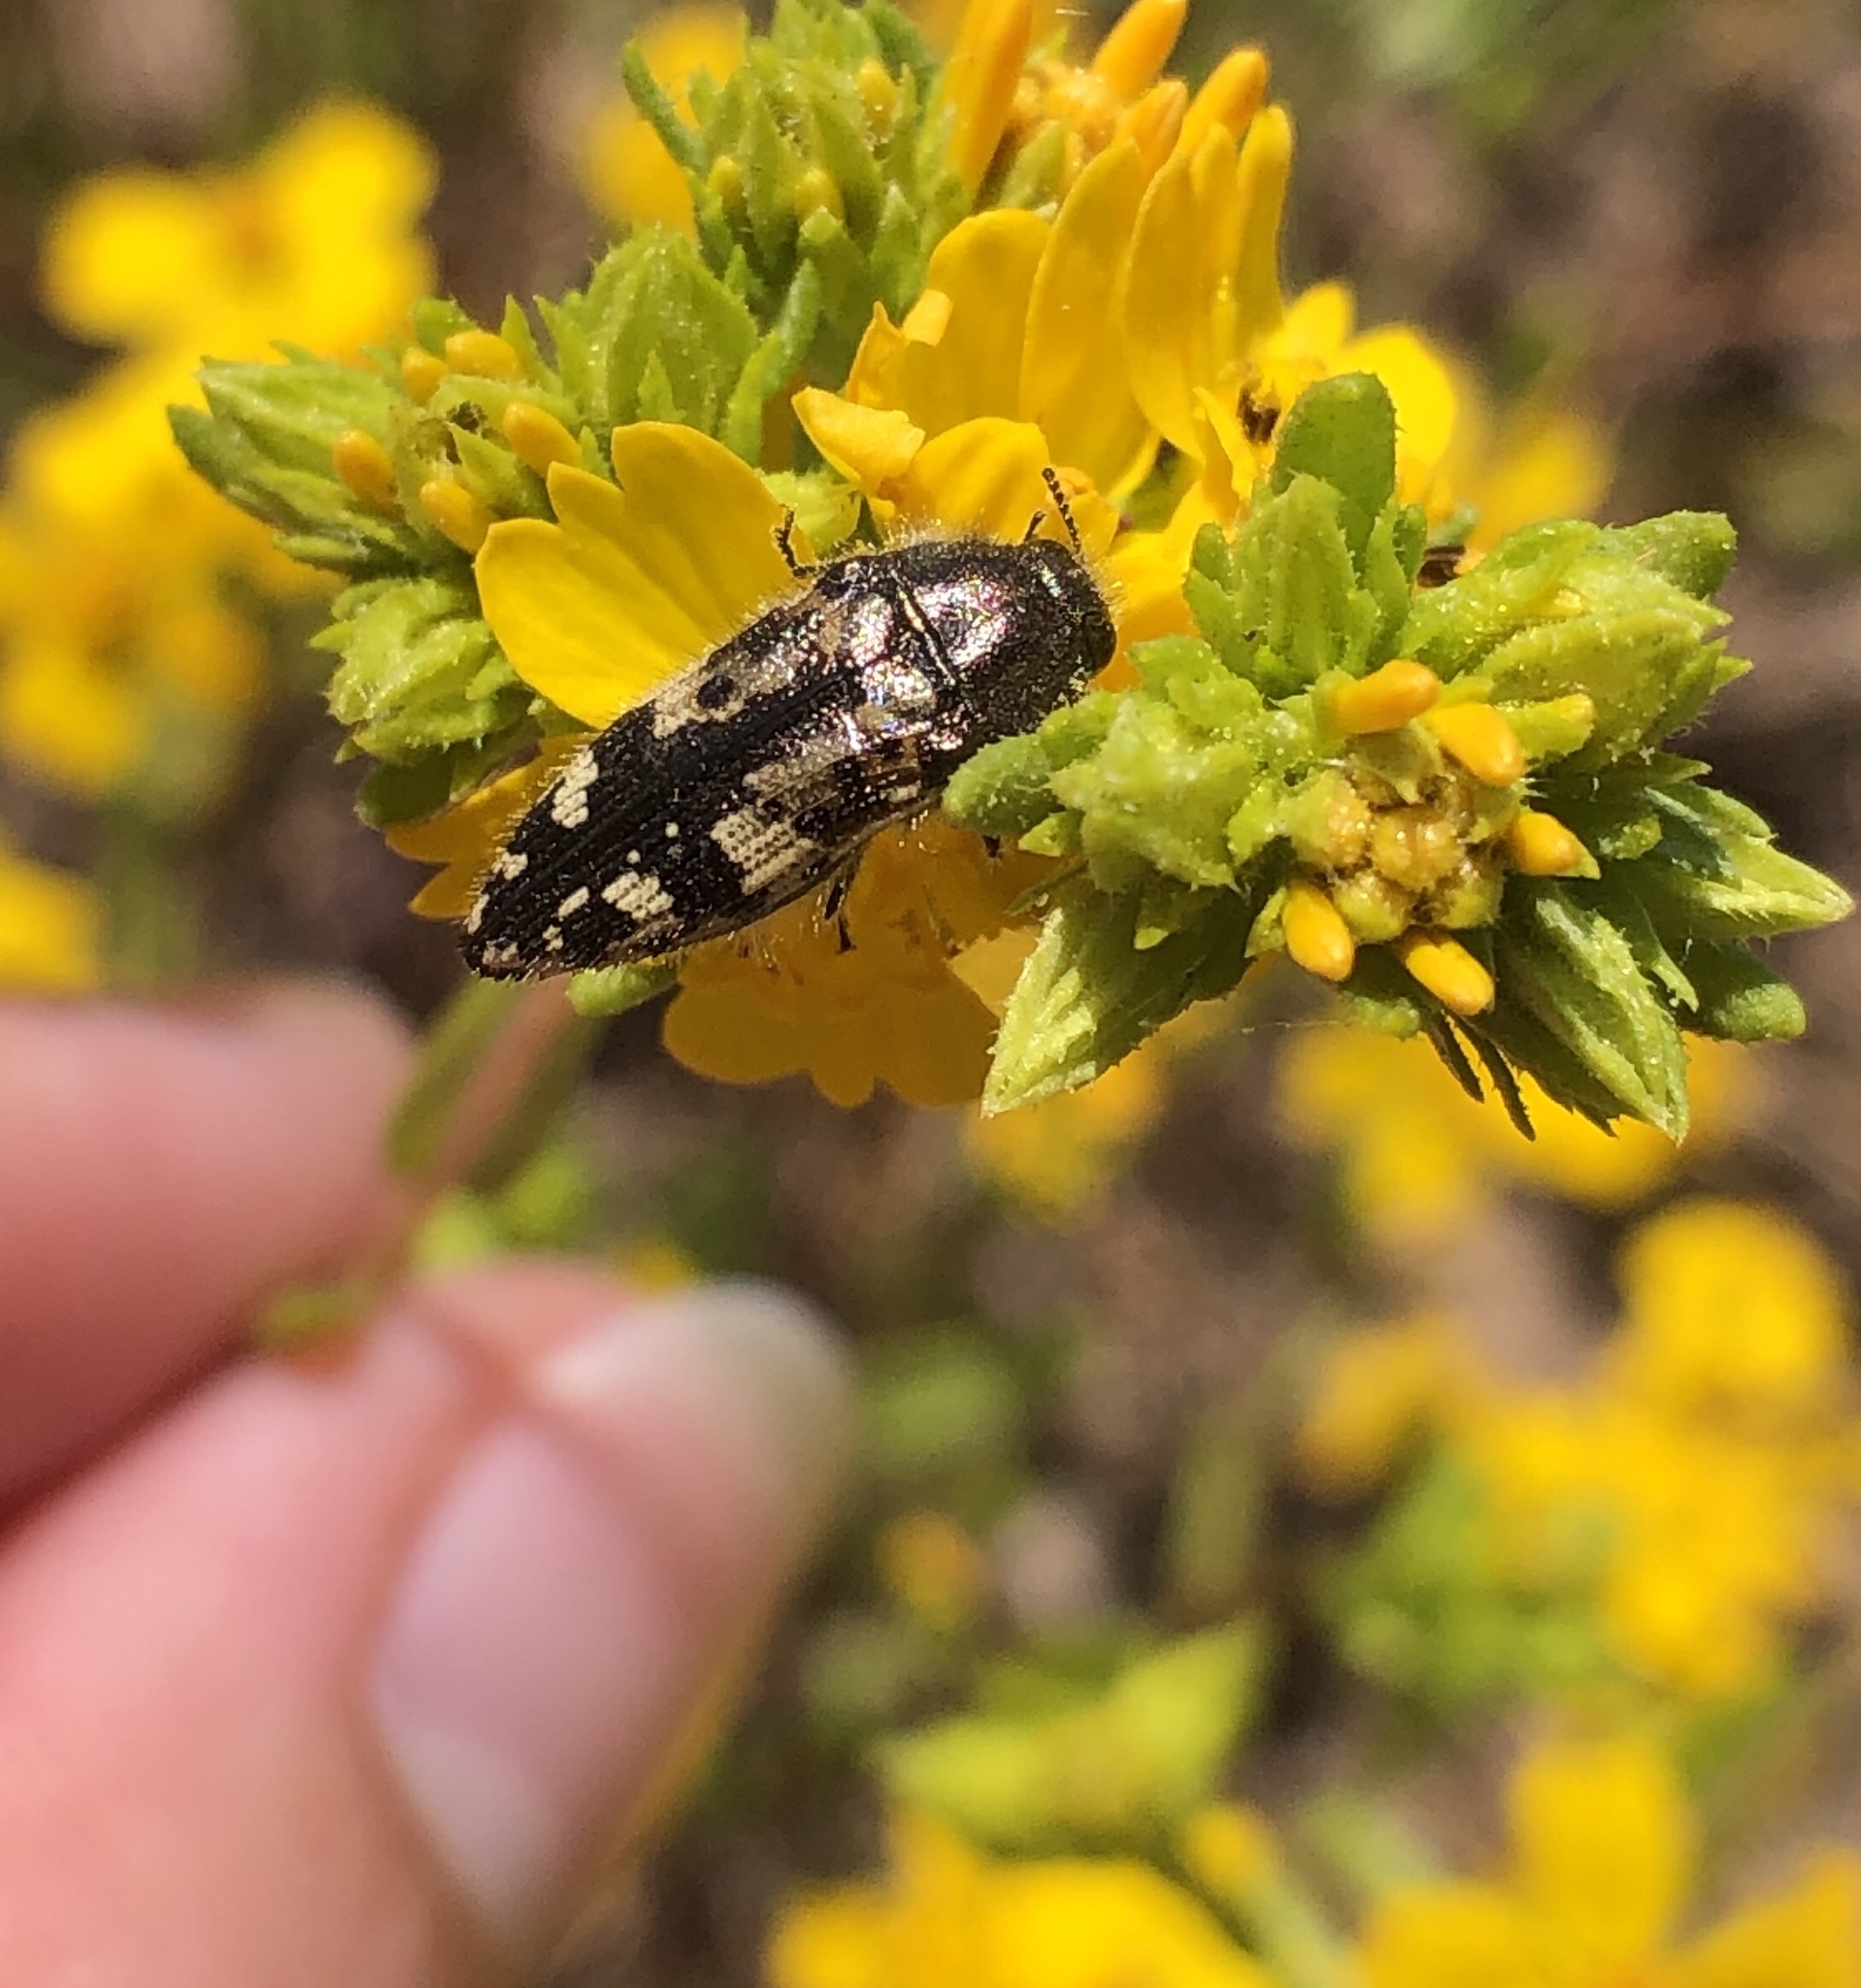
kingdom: Animalia
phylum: Arthropoda
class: Insecta
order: Coleoptera
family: Buprestidae
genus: Acmaeodera
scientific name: Acmaeodera hepburnii
